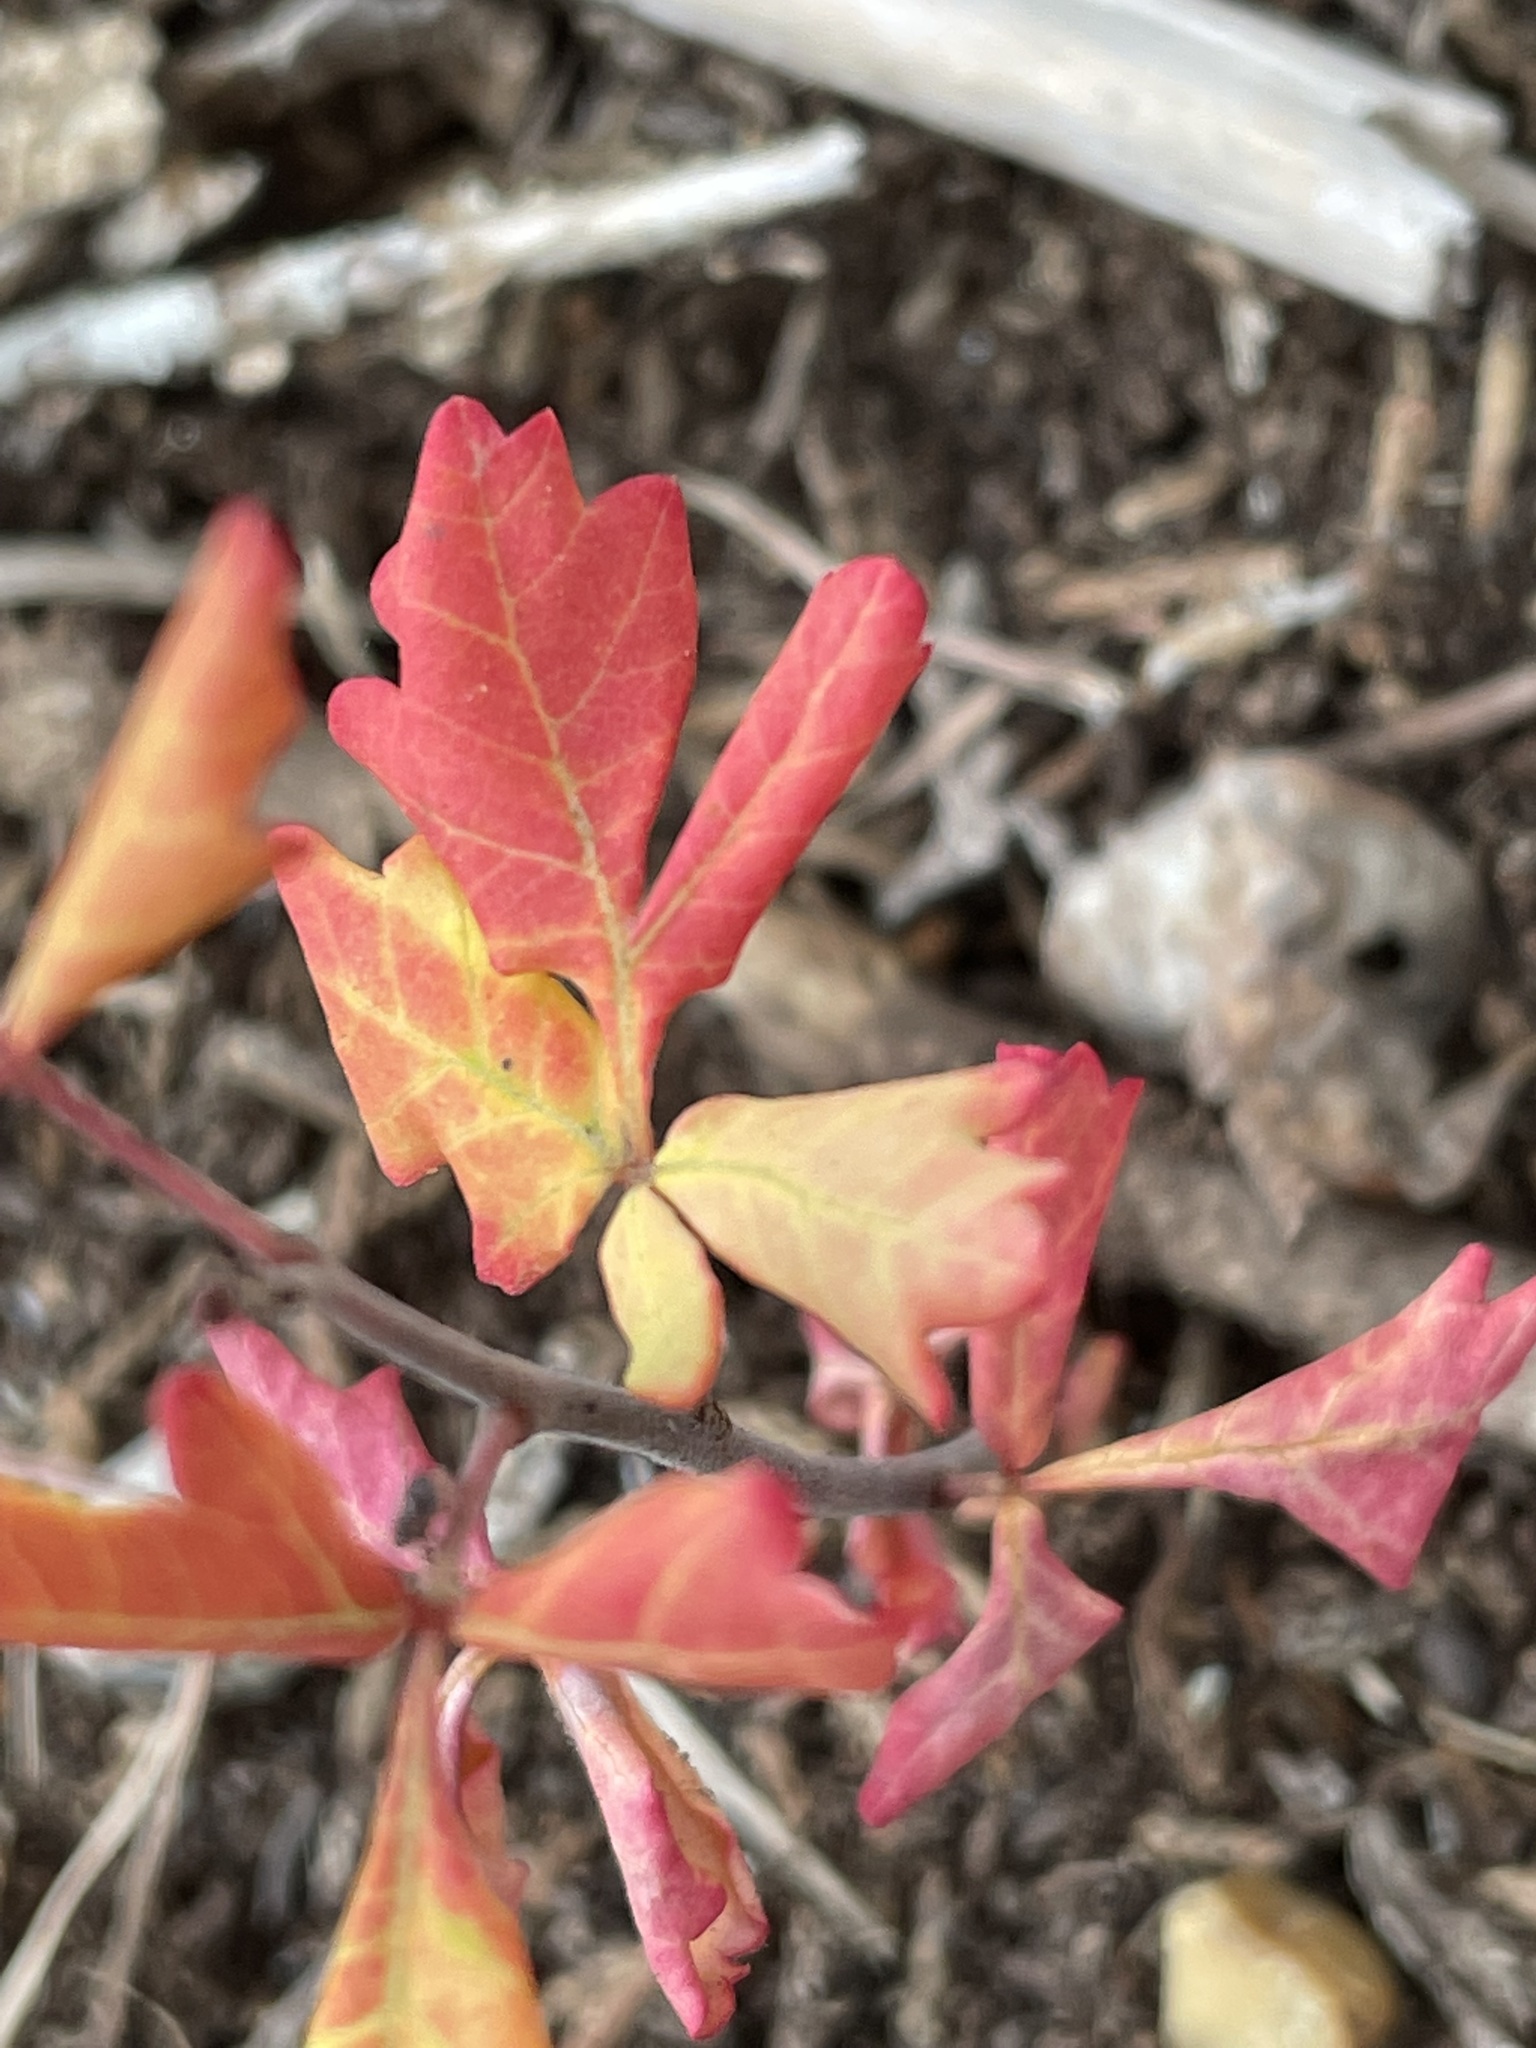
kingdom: Plantae
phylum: Tracheophyta
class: Magnoliopsida
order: Sapindales
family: Anacardiaceae
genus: Rhus
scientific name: Rhus aromatica
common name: Aromatic sumac
